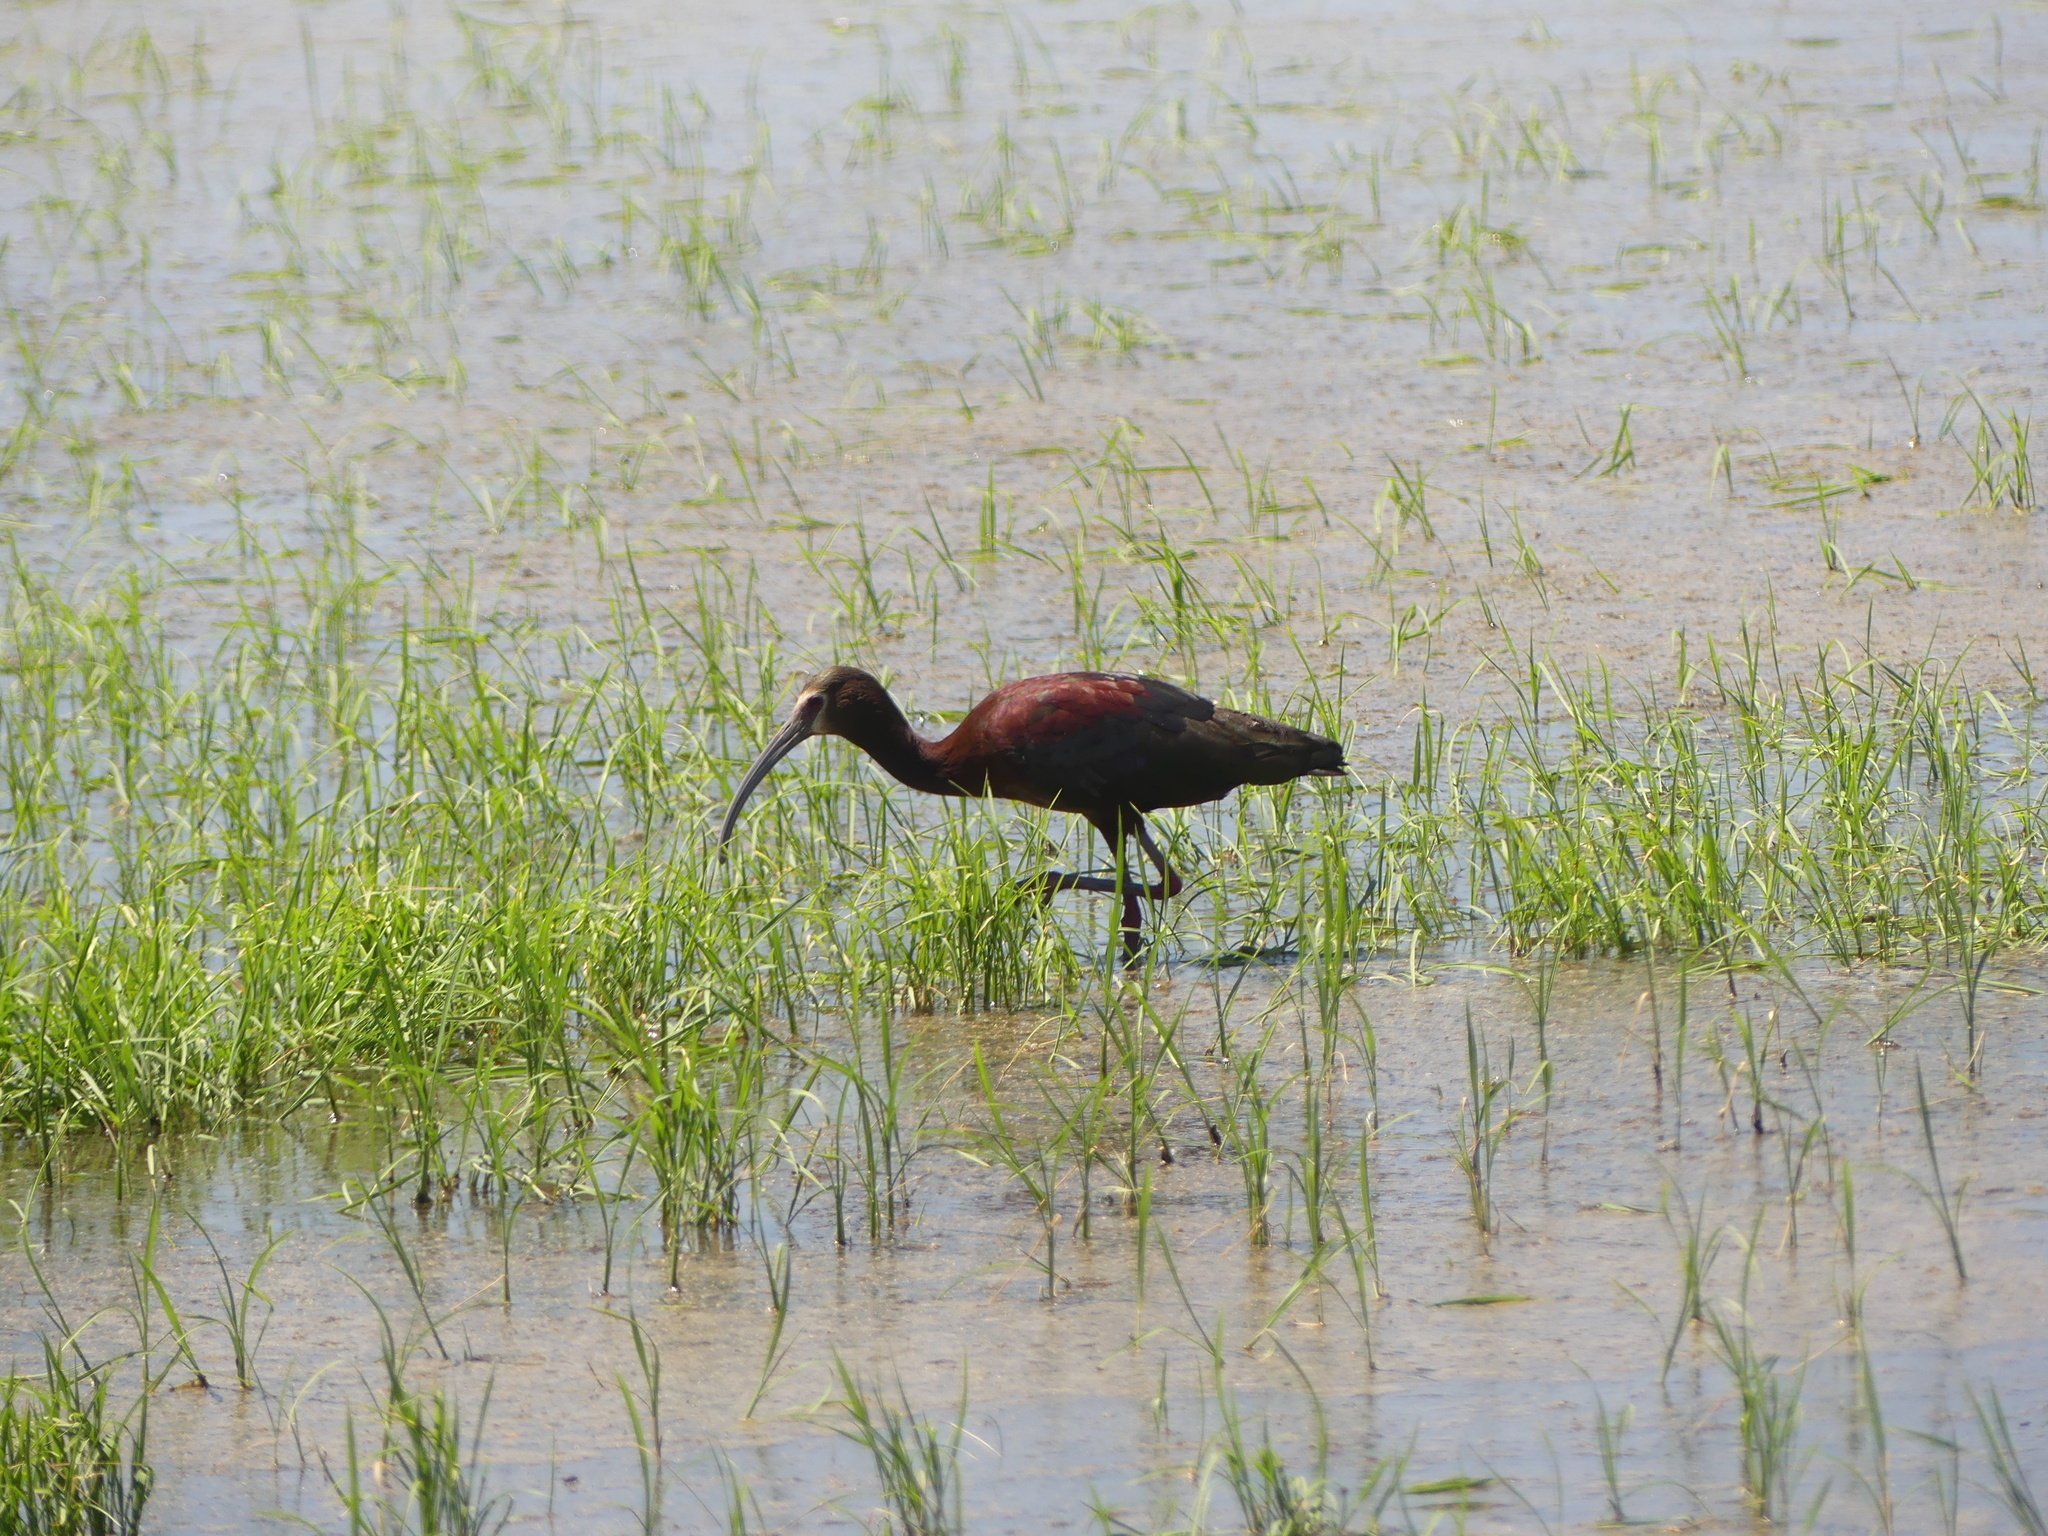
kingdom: Animalia
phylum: Chordata
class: Aves
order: Pelecaniformes
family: Threskiornithidae
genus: Plegadis
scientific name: Plegadis chihi
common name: White-faced ibis
